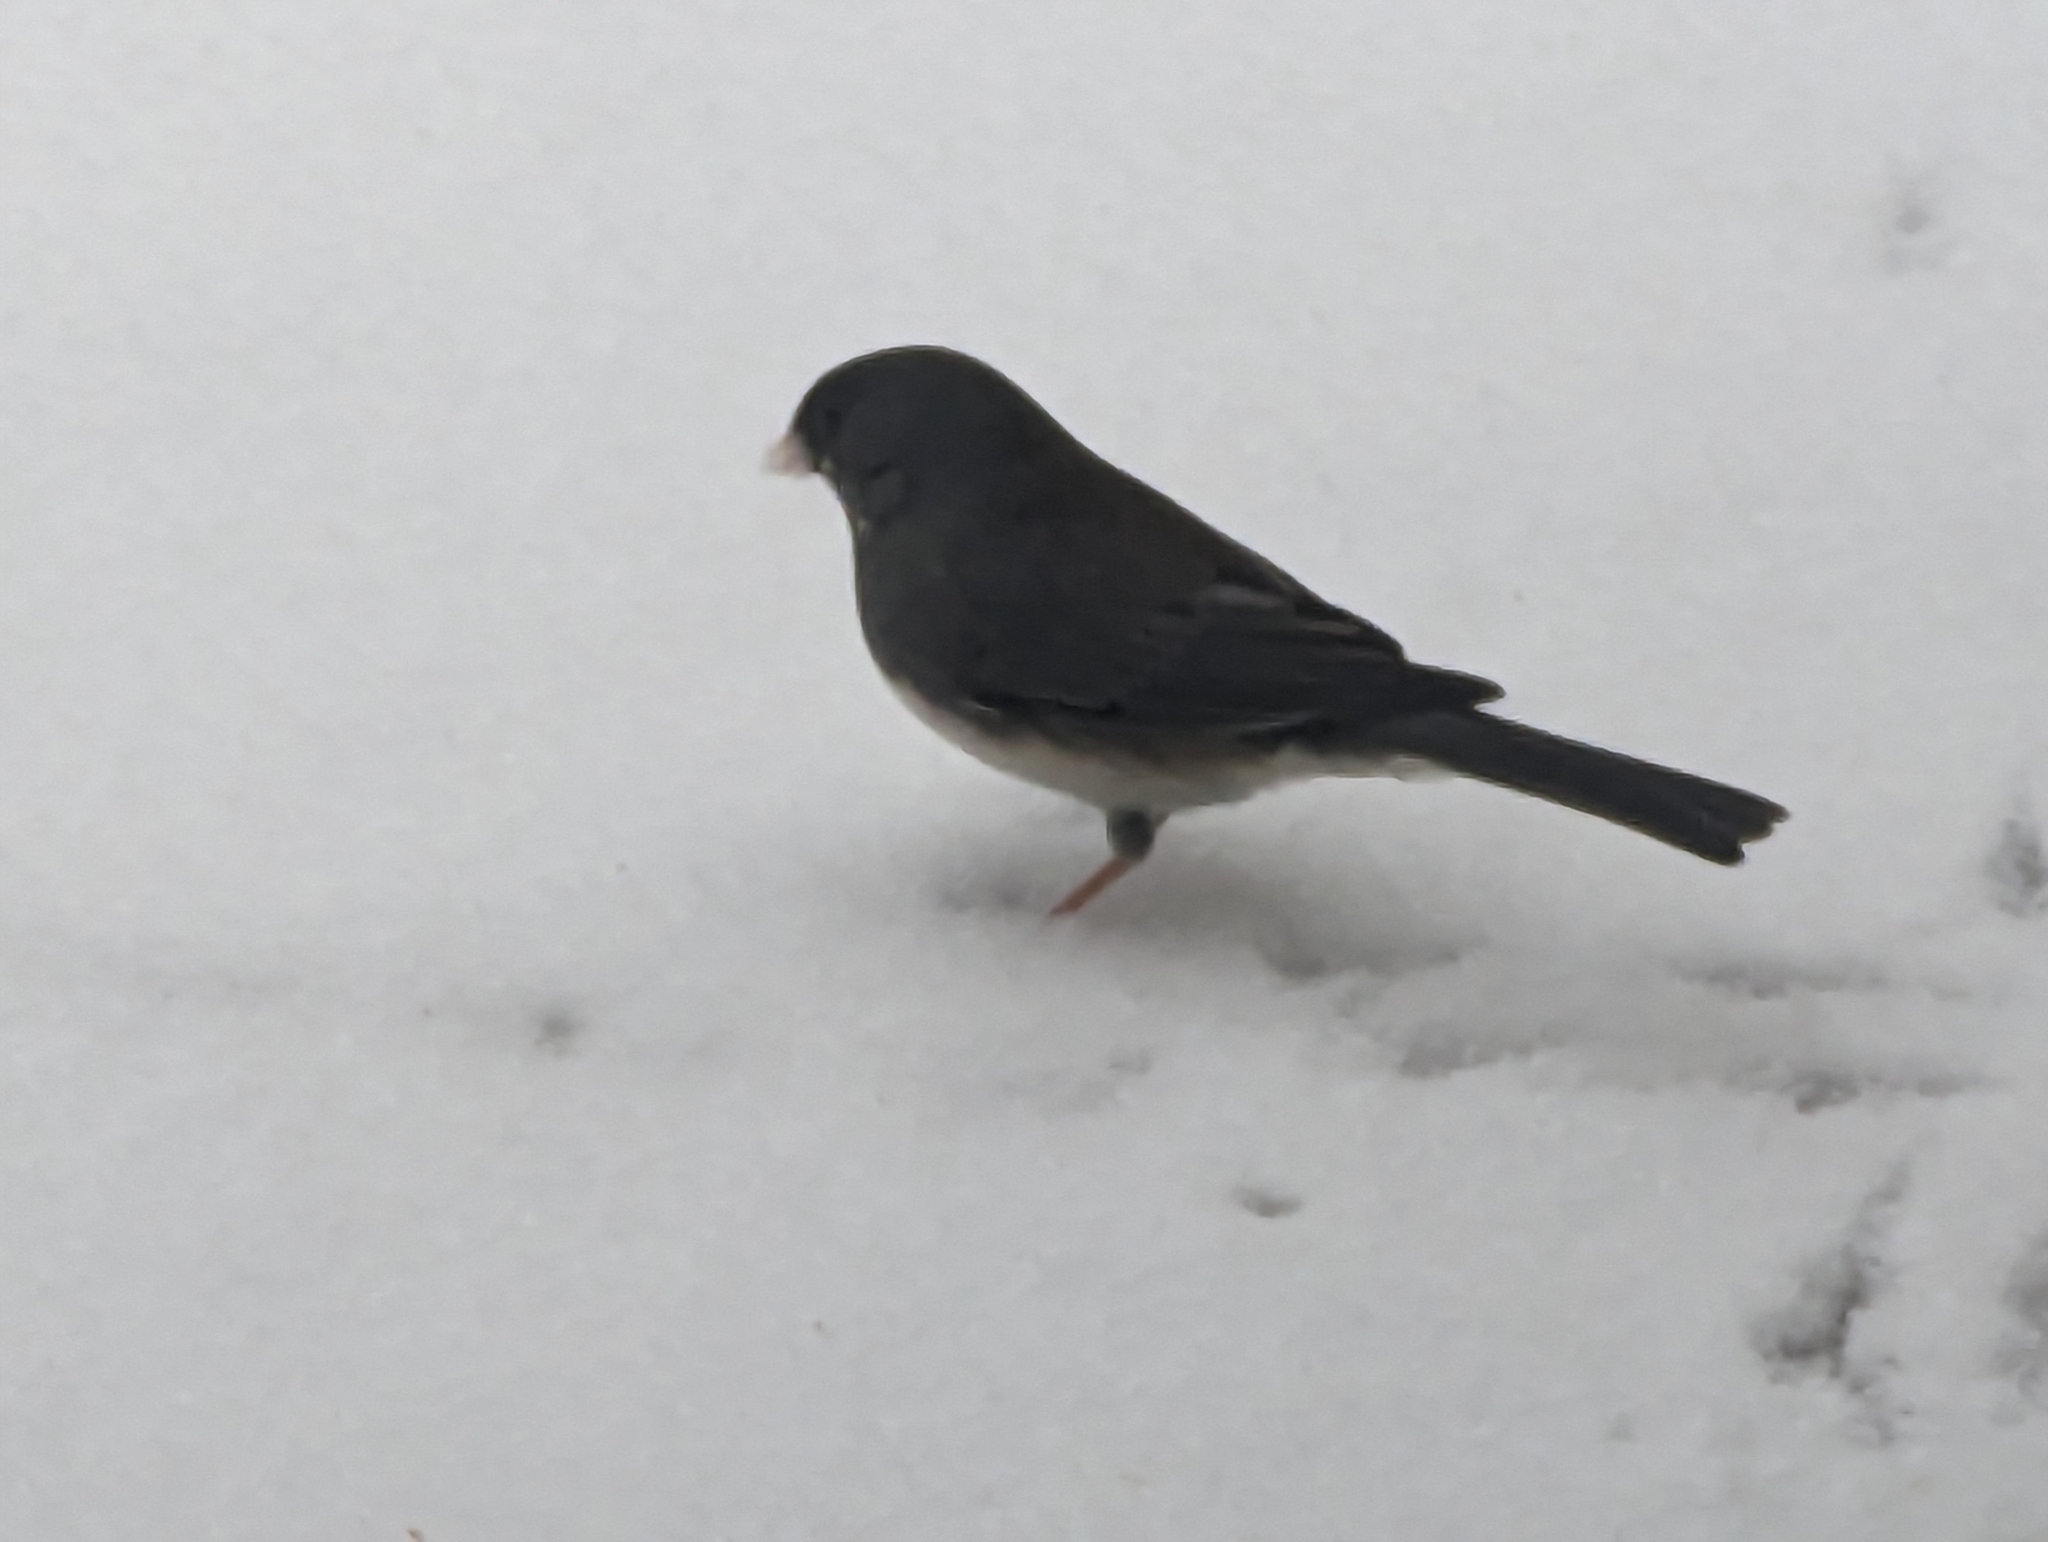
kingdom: Animalia
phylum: Chordata
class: Aves
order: Passeriformes
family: Passerellidae
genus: Junco
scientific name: Junco hyemalis
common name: Dark-eyed junco
